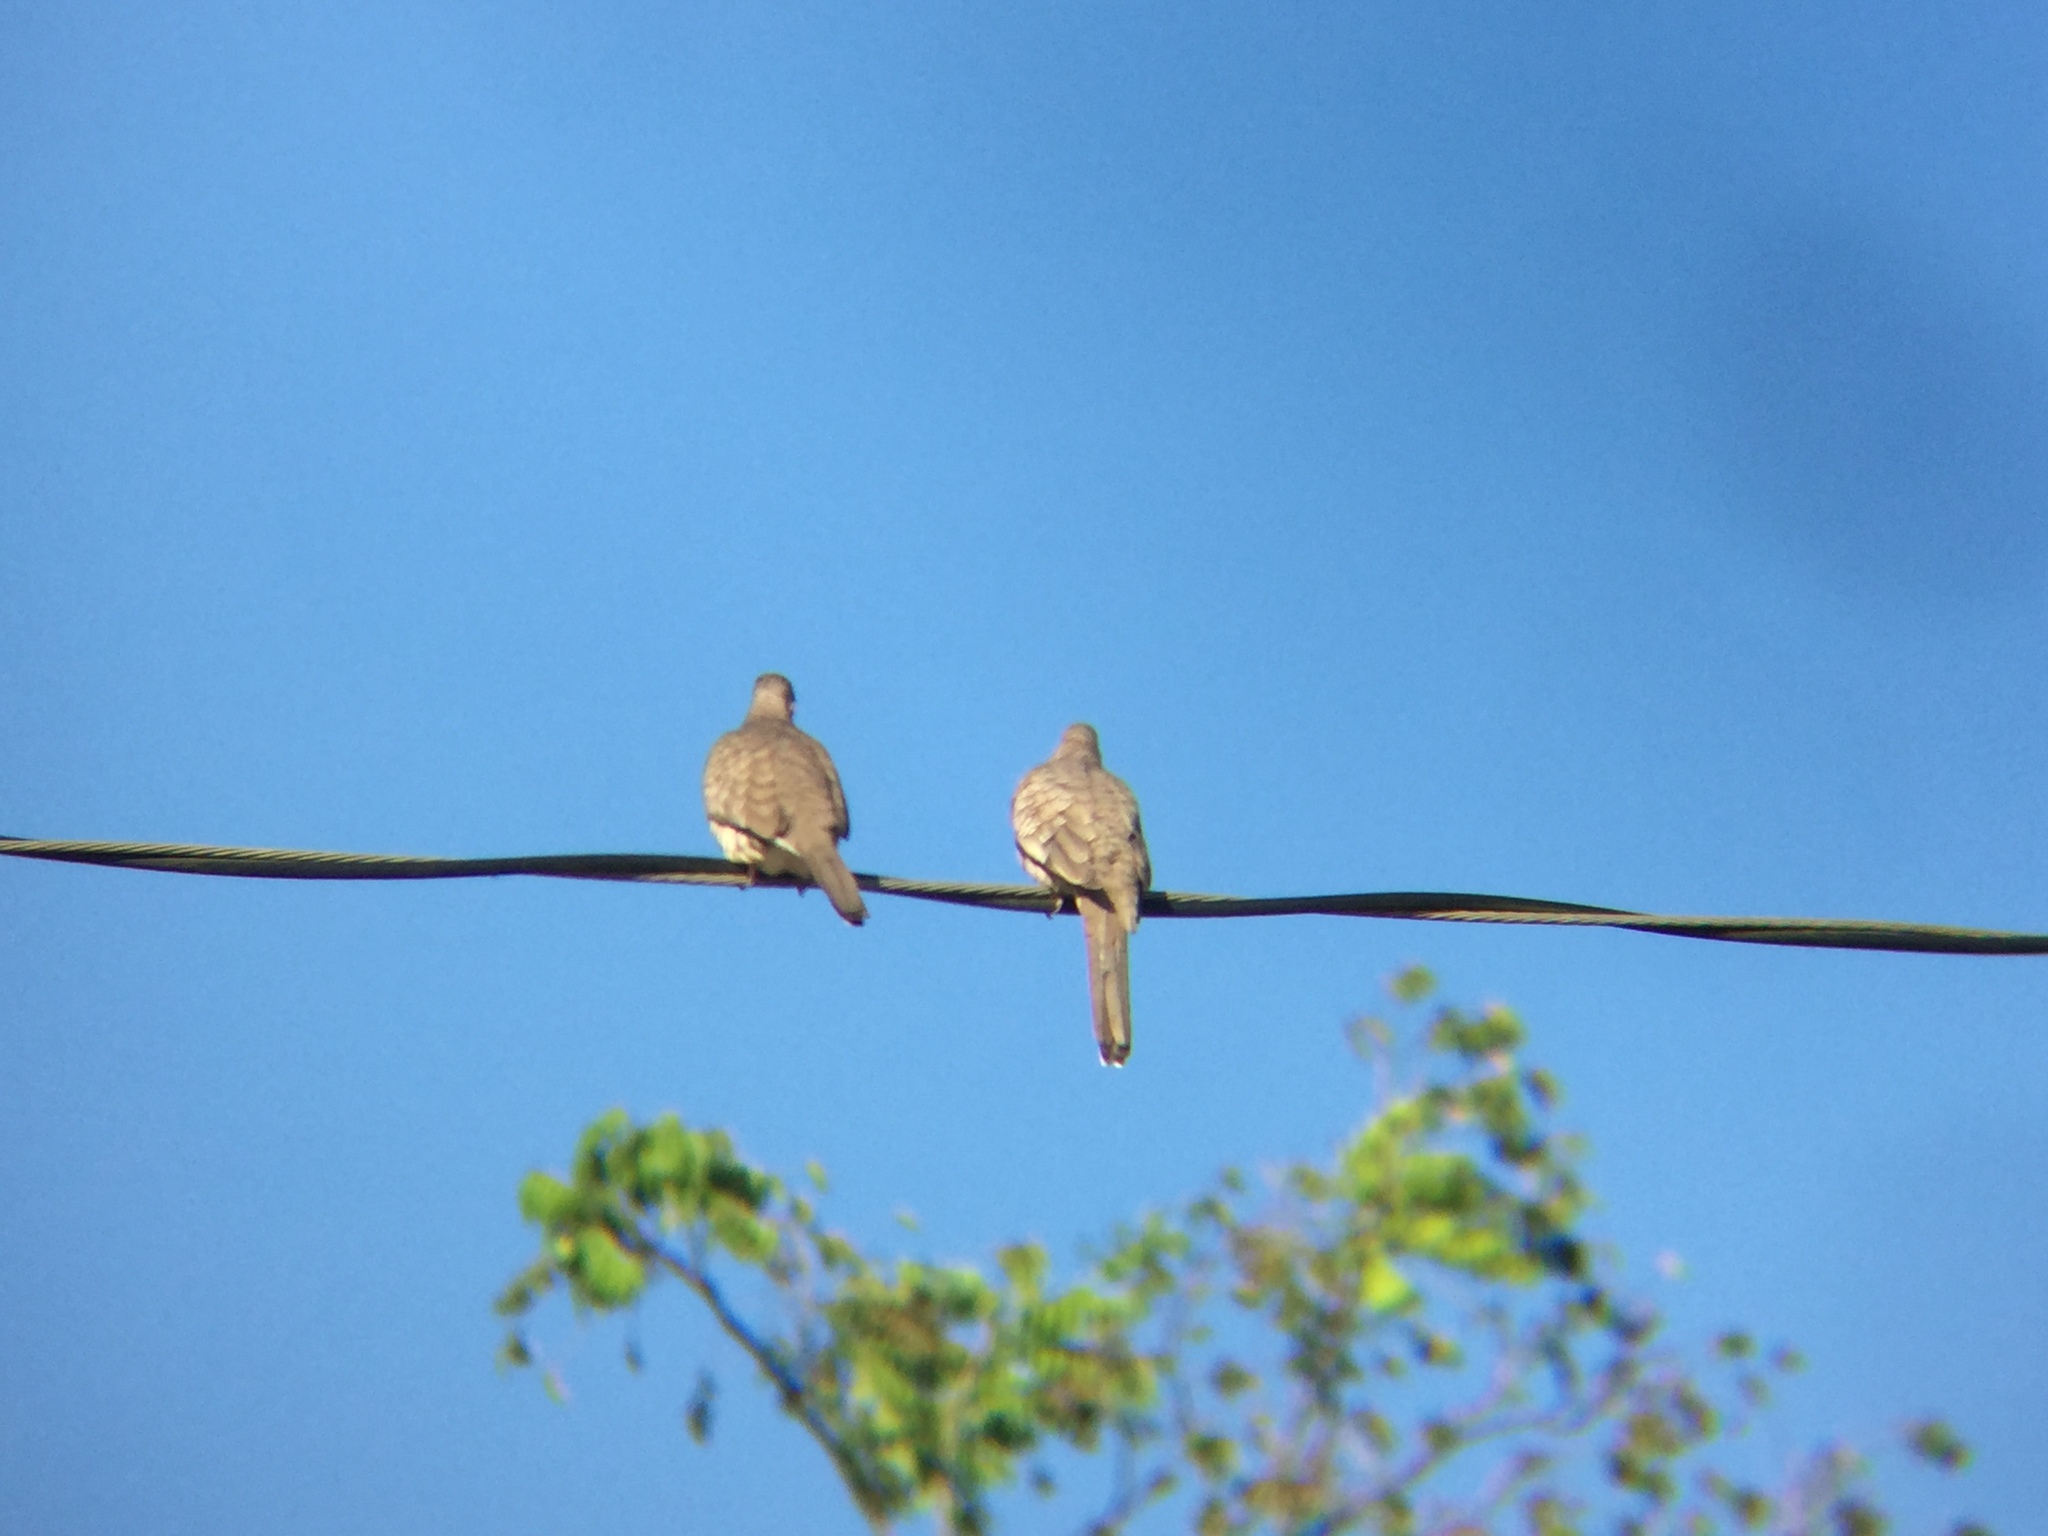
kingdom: Animalia
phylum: Chordata
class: Aves
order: Columbiformes
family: Columbidae
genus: Columbina
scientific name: Columbina inca
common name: Inca dove
